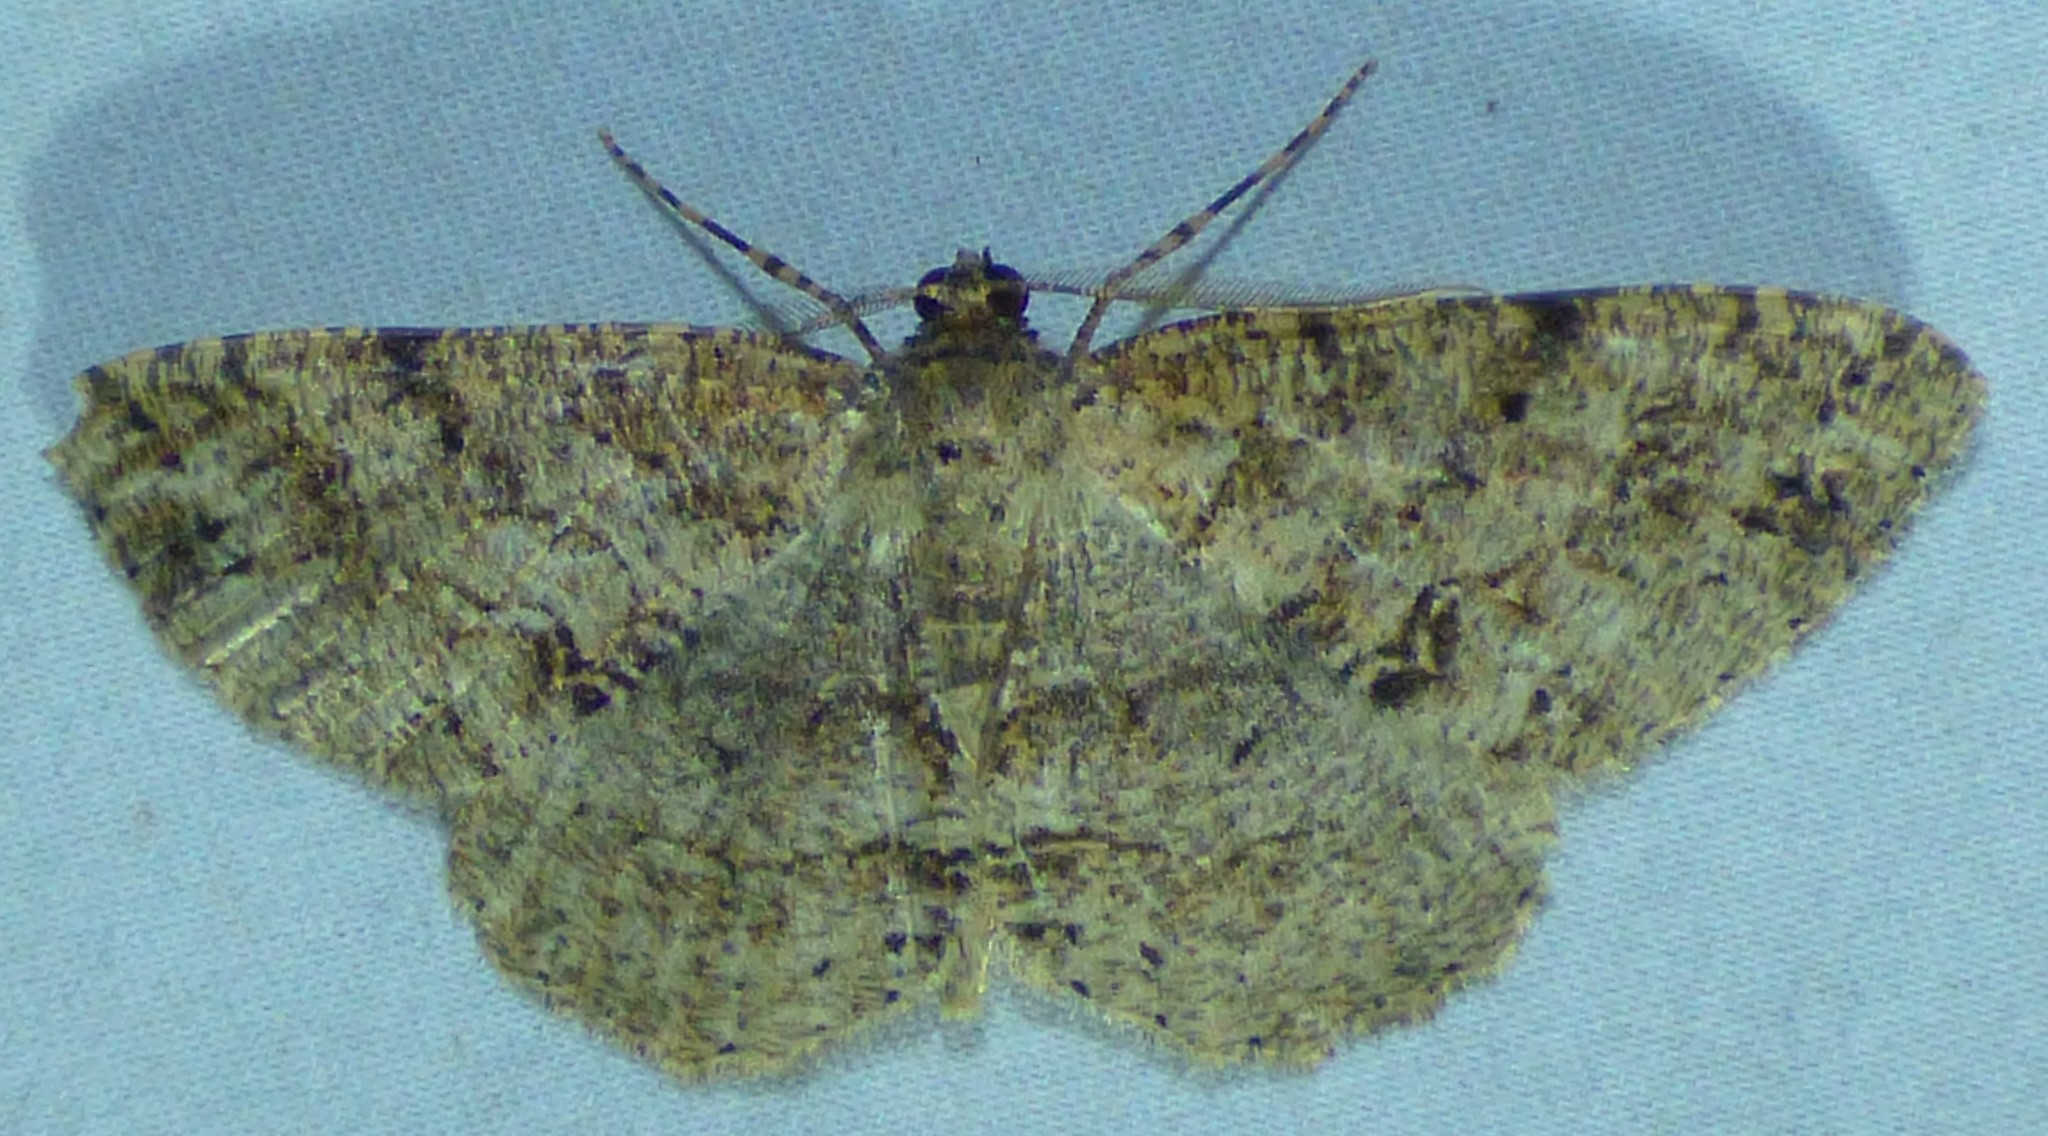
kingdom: Animalia
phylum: Arthropoda
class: Insecta
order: Lepidoptera
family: Geometridae
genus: Melanolophia
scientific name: Melanolophia canadaria
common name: Canadian melanolophia
